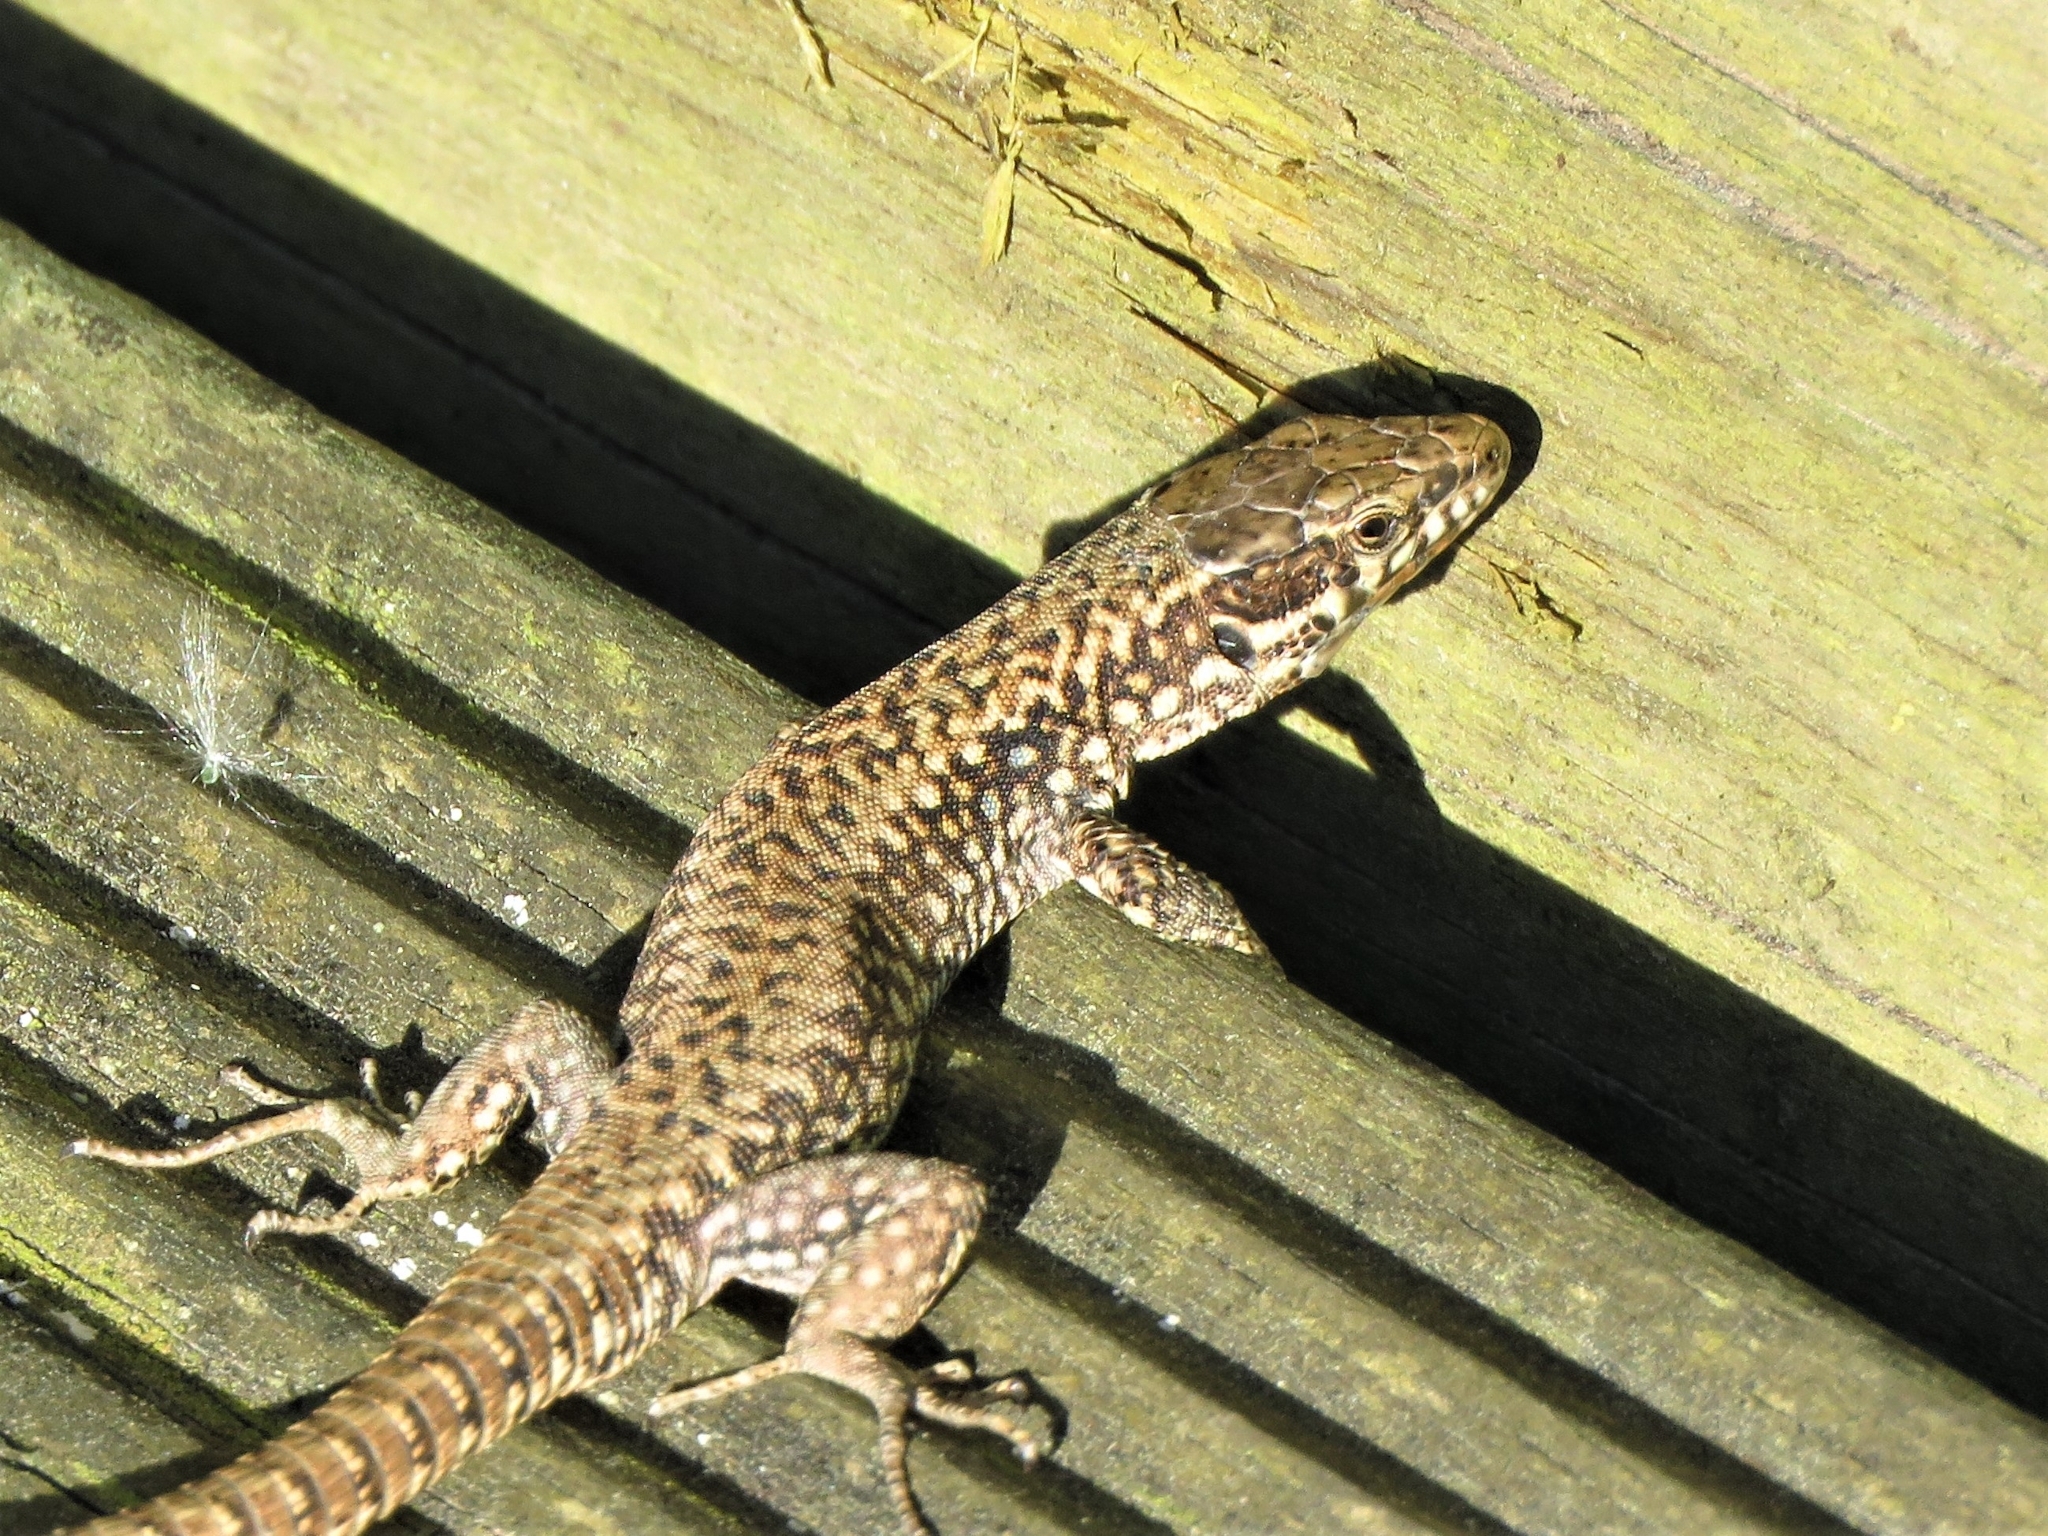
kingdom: Animalia
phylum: Chordata
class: Squamata
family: Lacertidae
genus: Podarcis
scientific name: Podarcis muralis
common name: Common wall lizard
